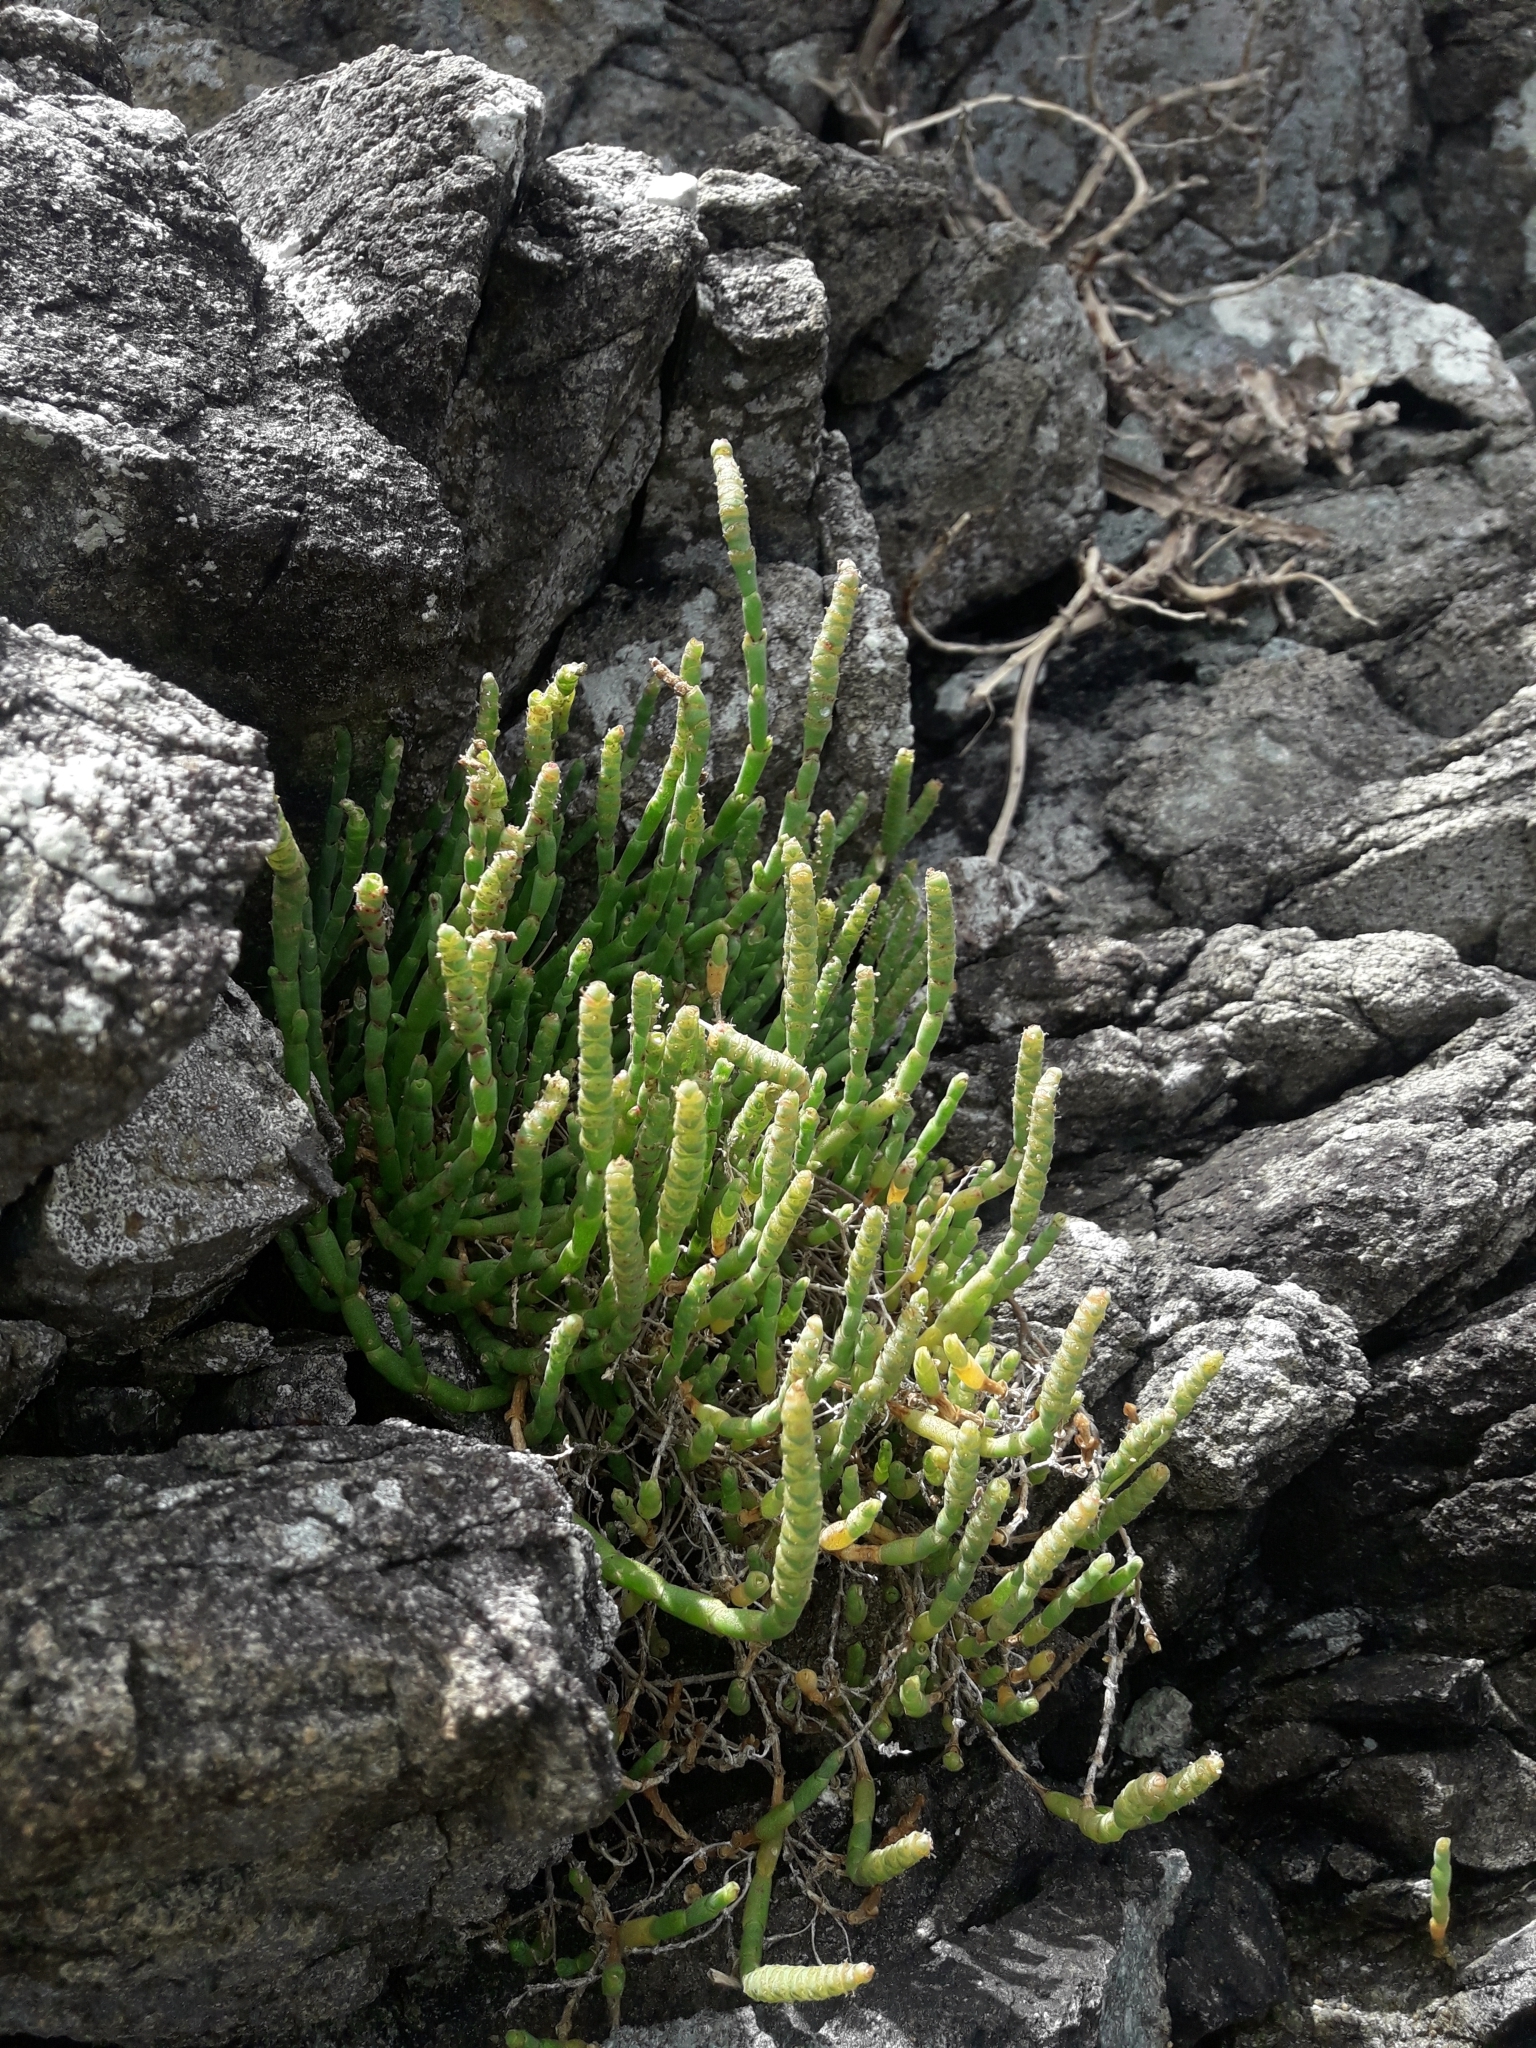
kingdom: Plantae
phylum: Tracheophyta
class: Magnoliopsida
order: Caryophyllales
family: Amaranthaceae
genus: Salicornia
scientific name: Salicornia quinqueflora
